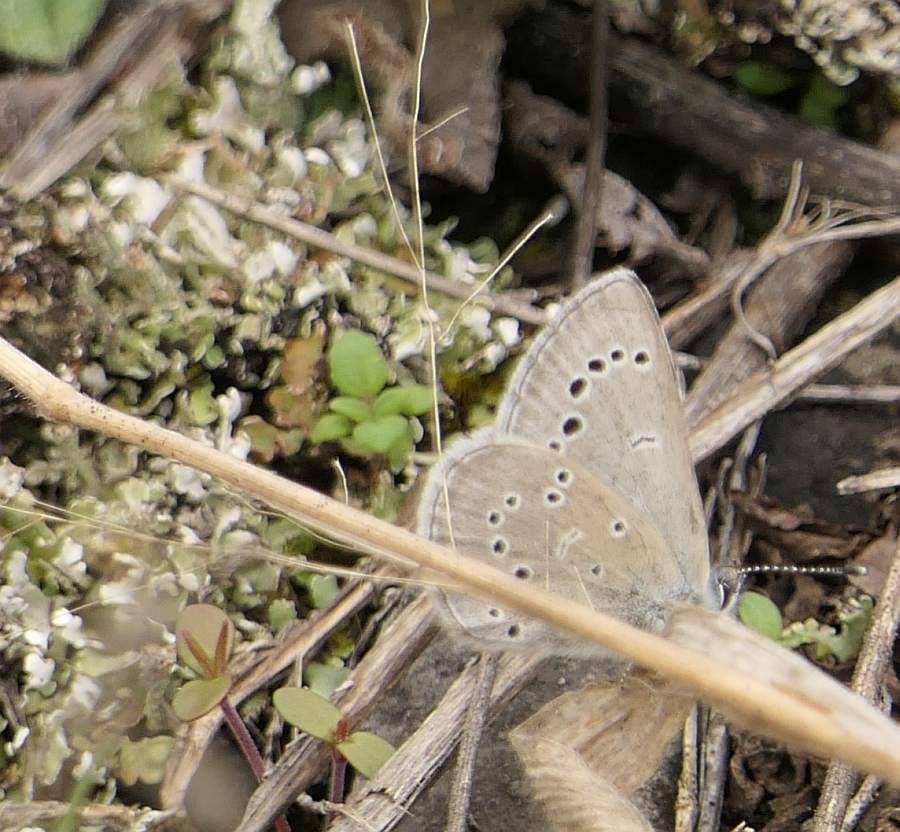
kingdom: Animalia
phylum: Arthropoda
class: Insecta
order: Lepidoptera
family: Lycaenidae
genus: Glaucopsyche
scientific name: Glaucopsyche lygdamus
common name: Silvery blue
